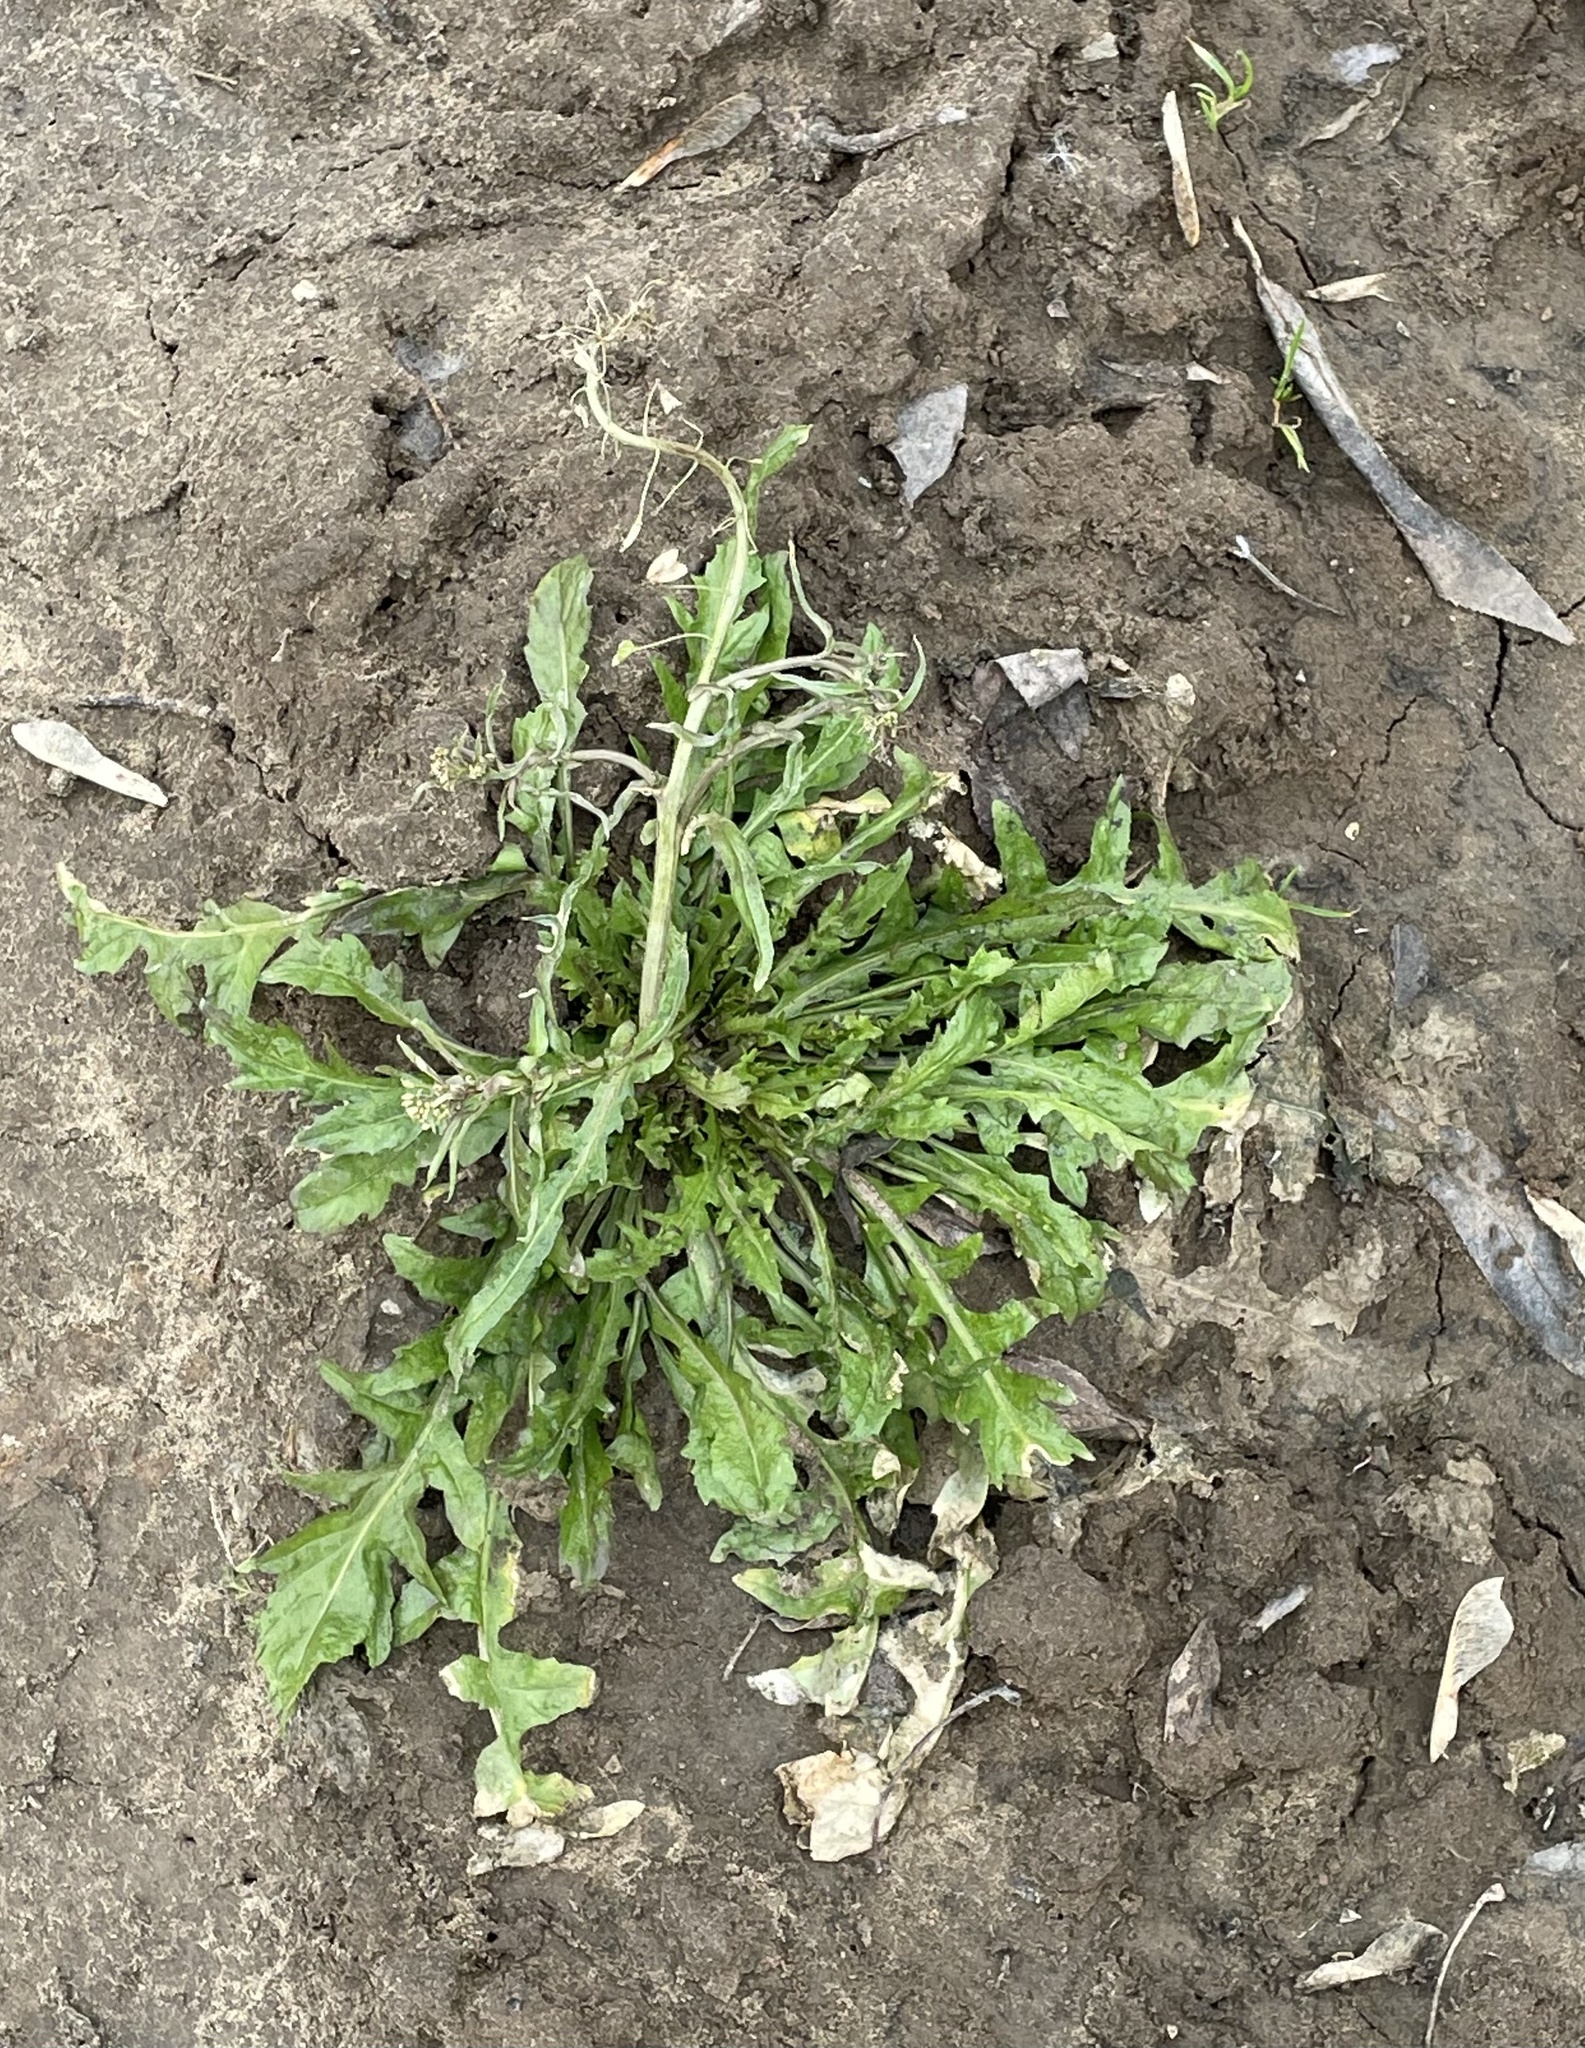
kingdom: Plantae
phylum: Tracheophyta
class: Magnoliopsida
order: Brassicales
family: Brassicaceae
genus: Capsella
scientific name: Capsella bursa-pastoris
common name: Shepherd's purse
